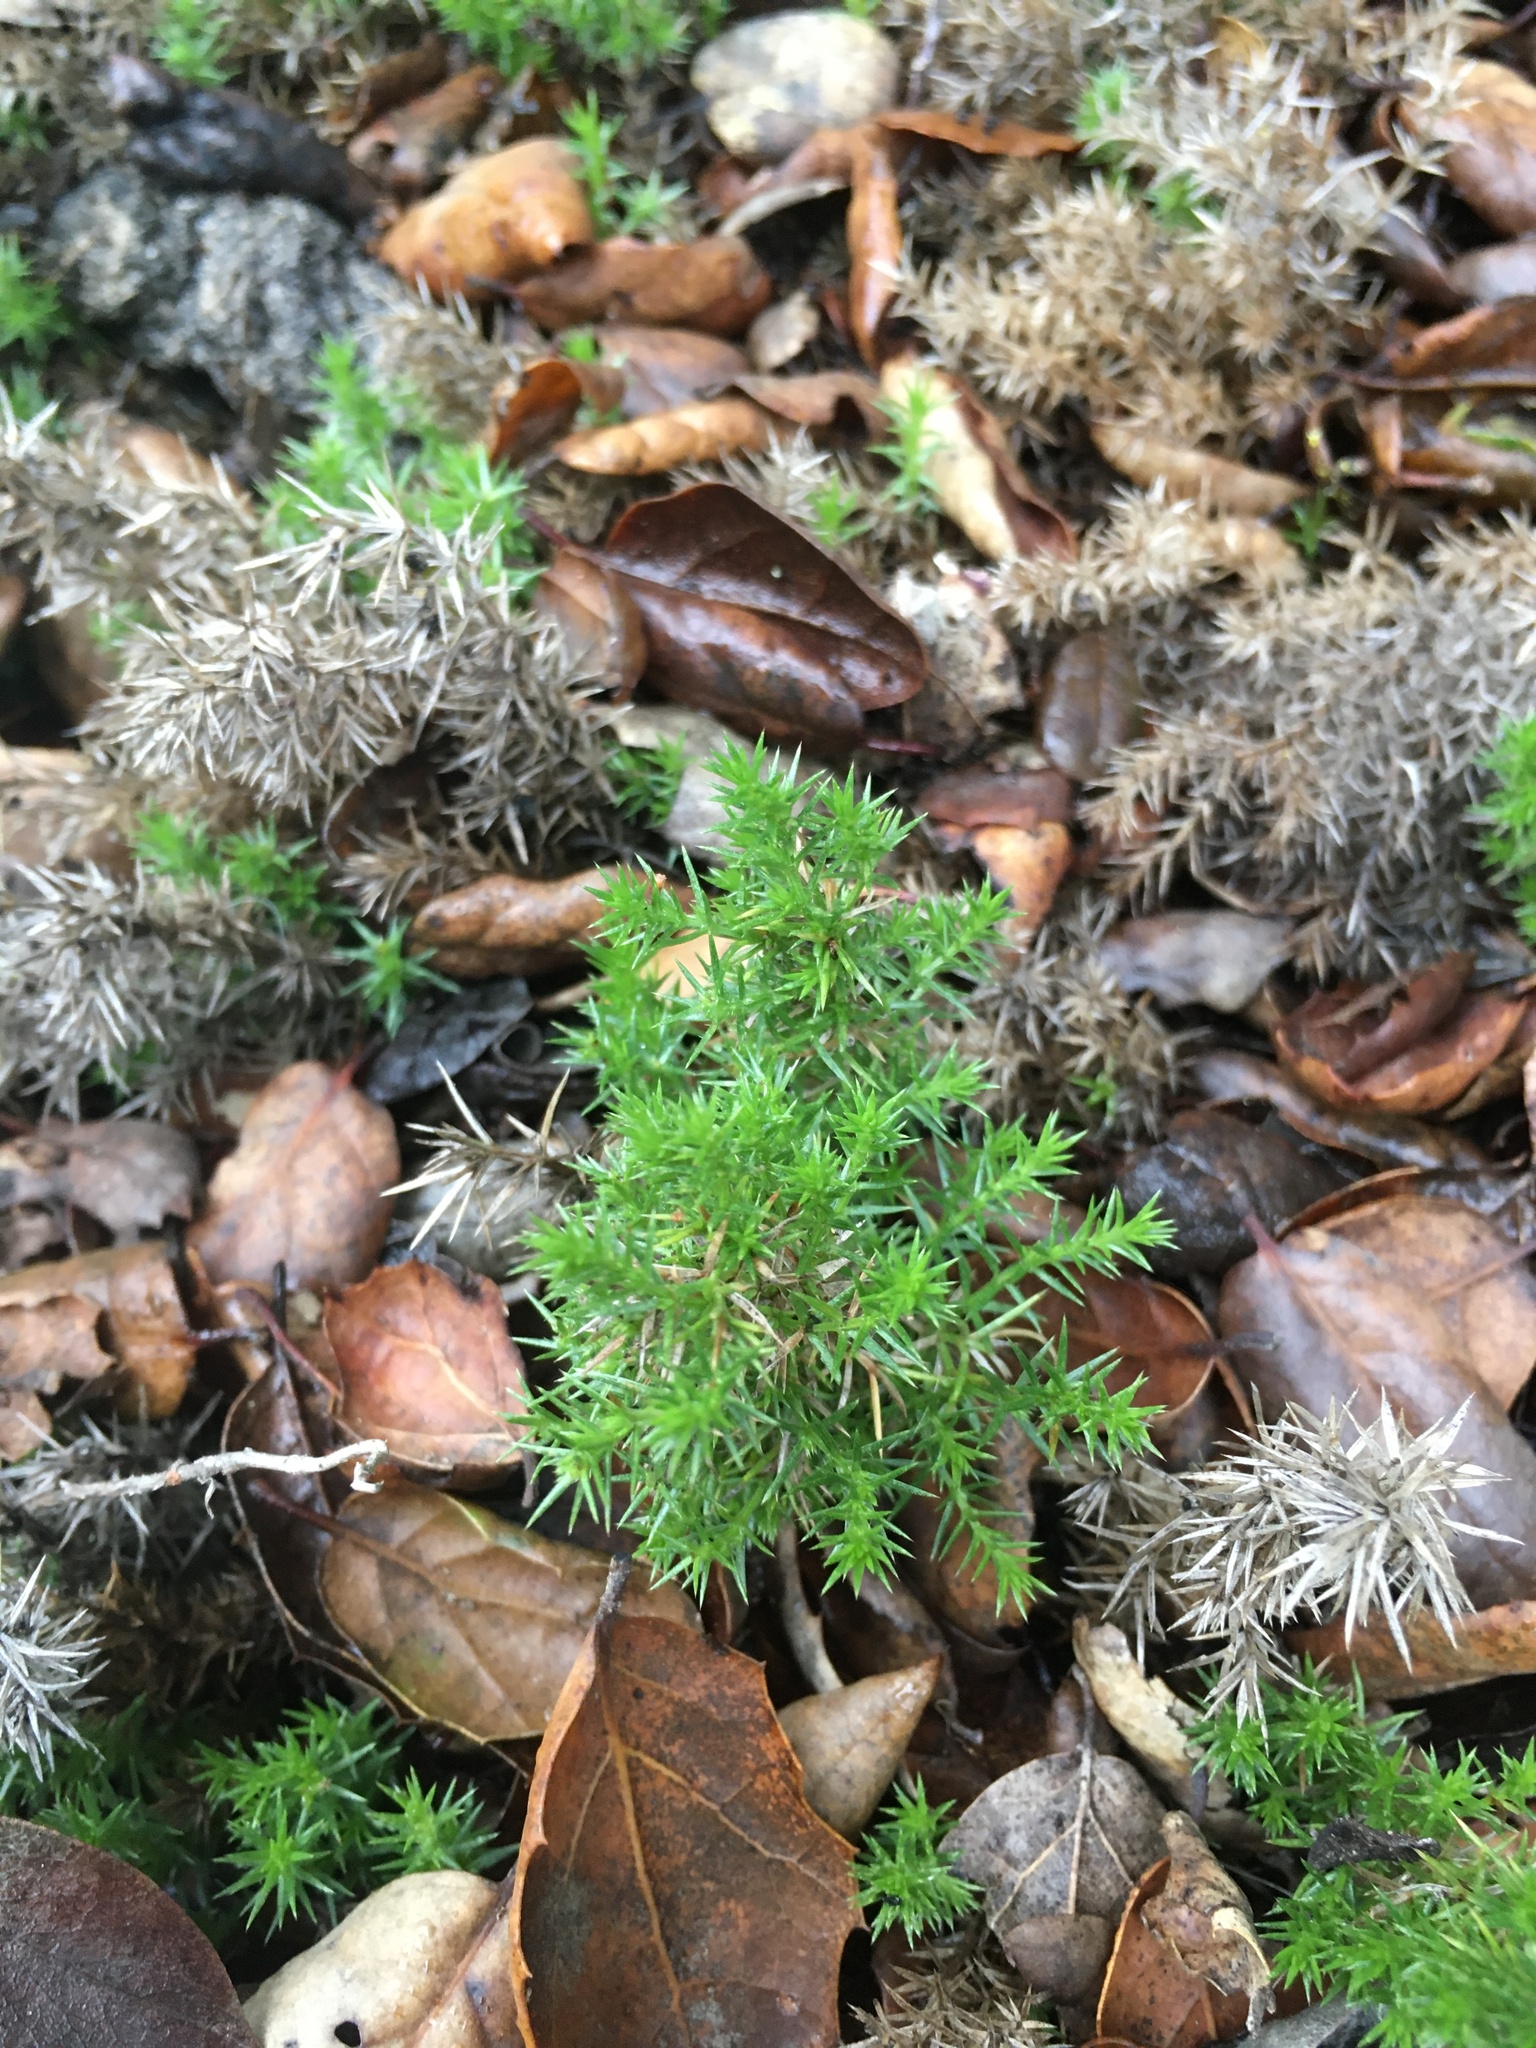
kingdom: Plantae
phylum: Tracheophyta
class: Magnoliopsida
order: Gentianales
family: Rubiaceae
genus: Galium
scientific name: Galium andrewsii
